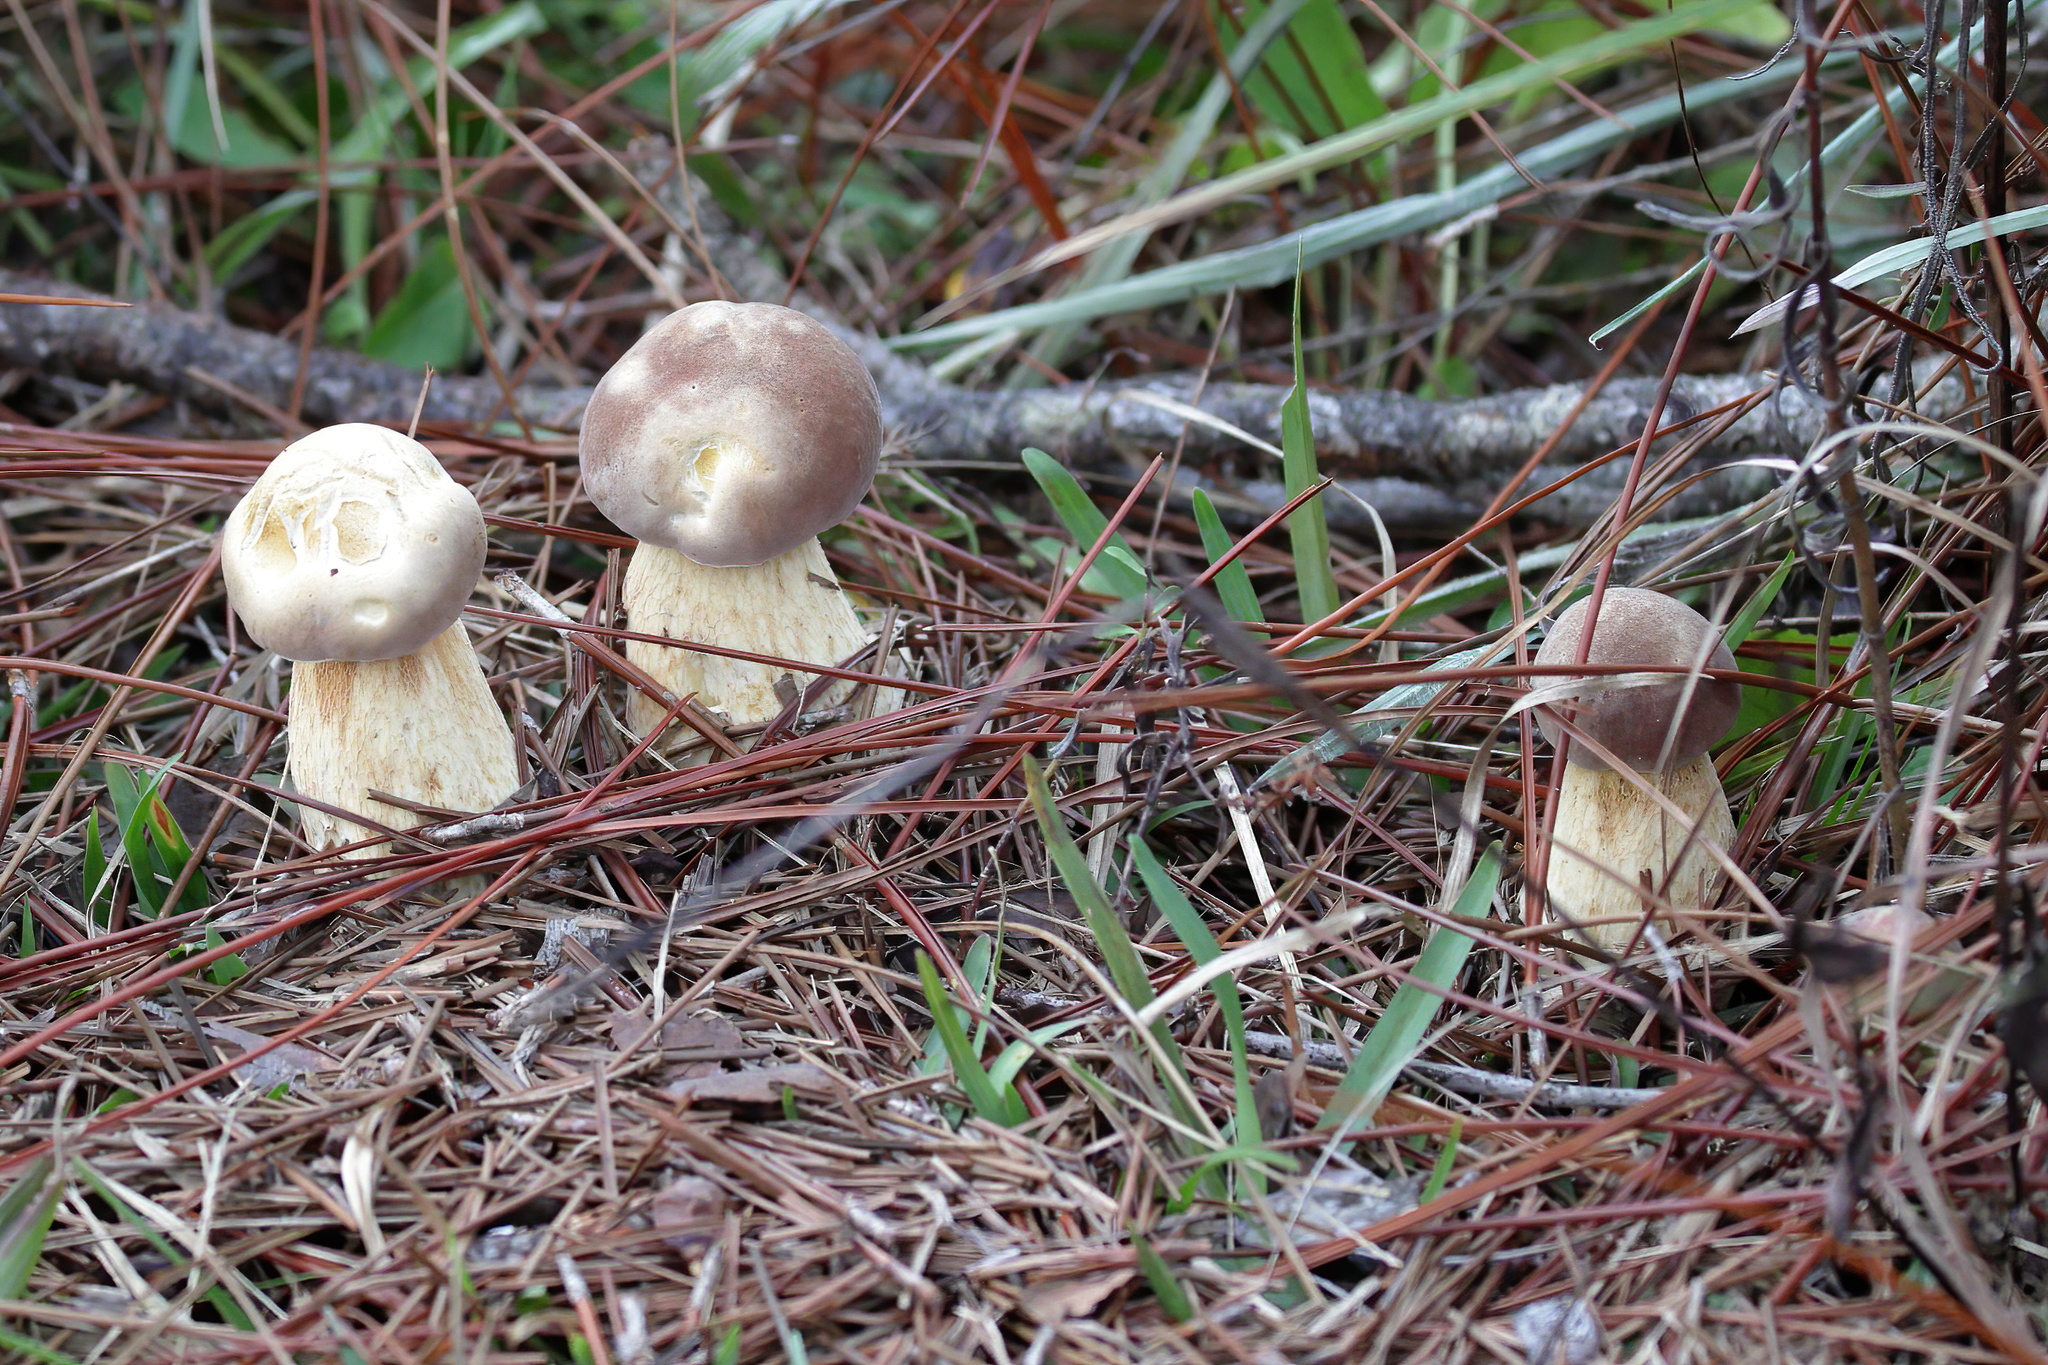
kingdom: Fungi
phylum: Basidiomycota
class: Agaricomycetes
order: Boletales
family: Boletaceae
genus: Boletus
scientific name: Boletus pseudopinophilus
